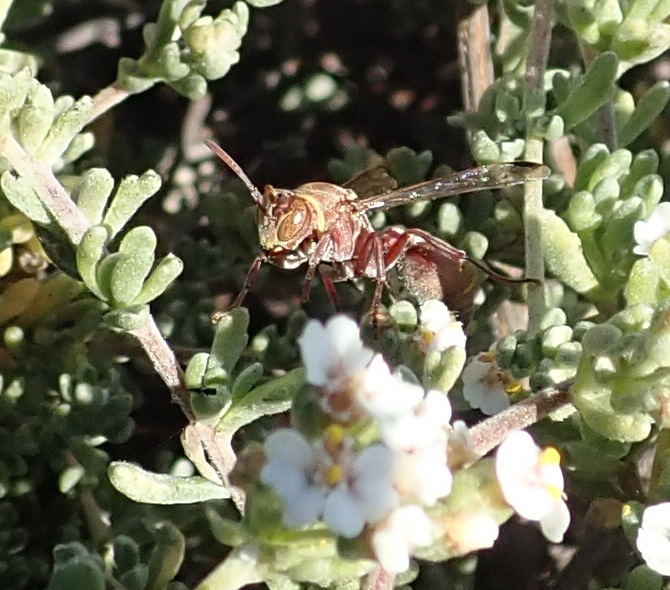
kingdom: Animalia
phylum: Arthropoda
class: Insecta
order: Hymenoptera
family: Vespidae
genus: Ropalidia
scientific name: Ropalidia distigma
